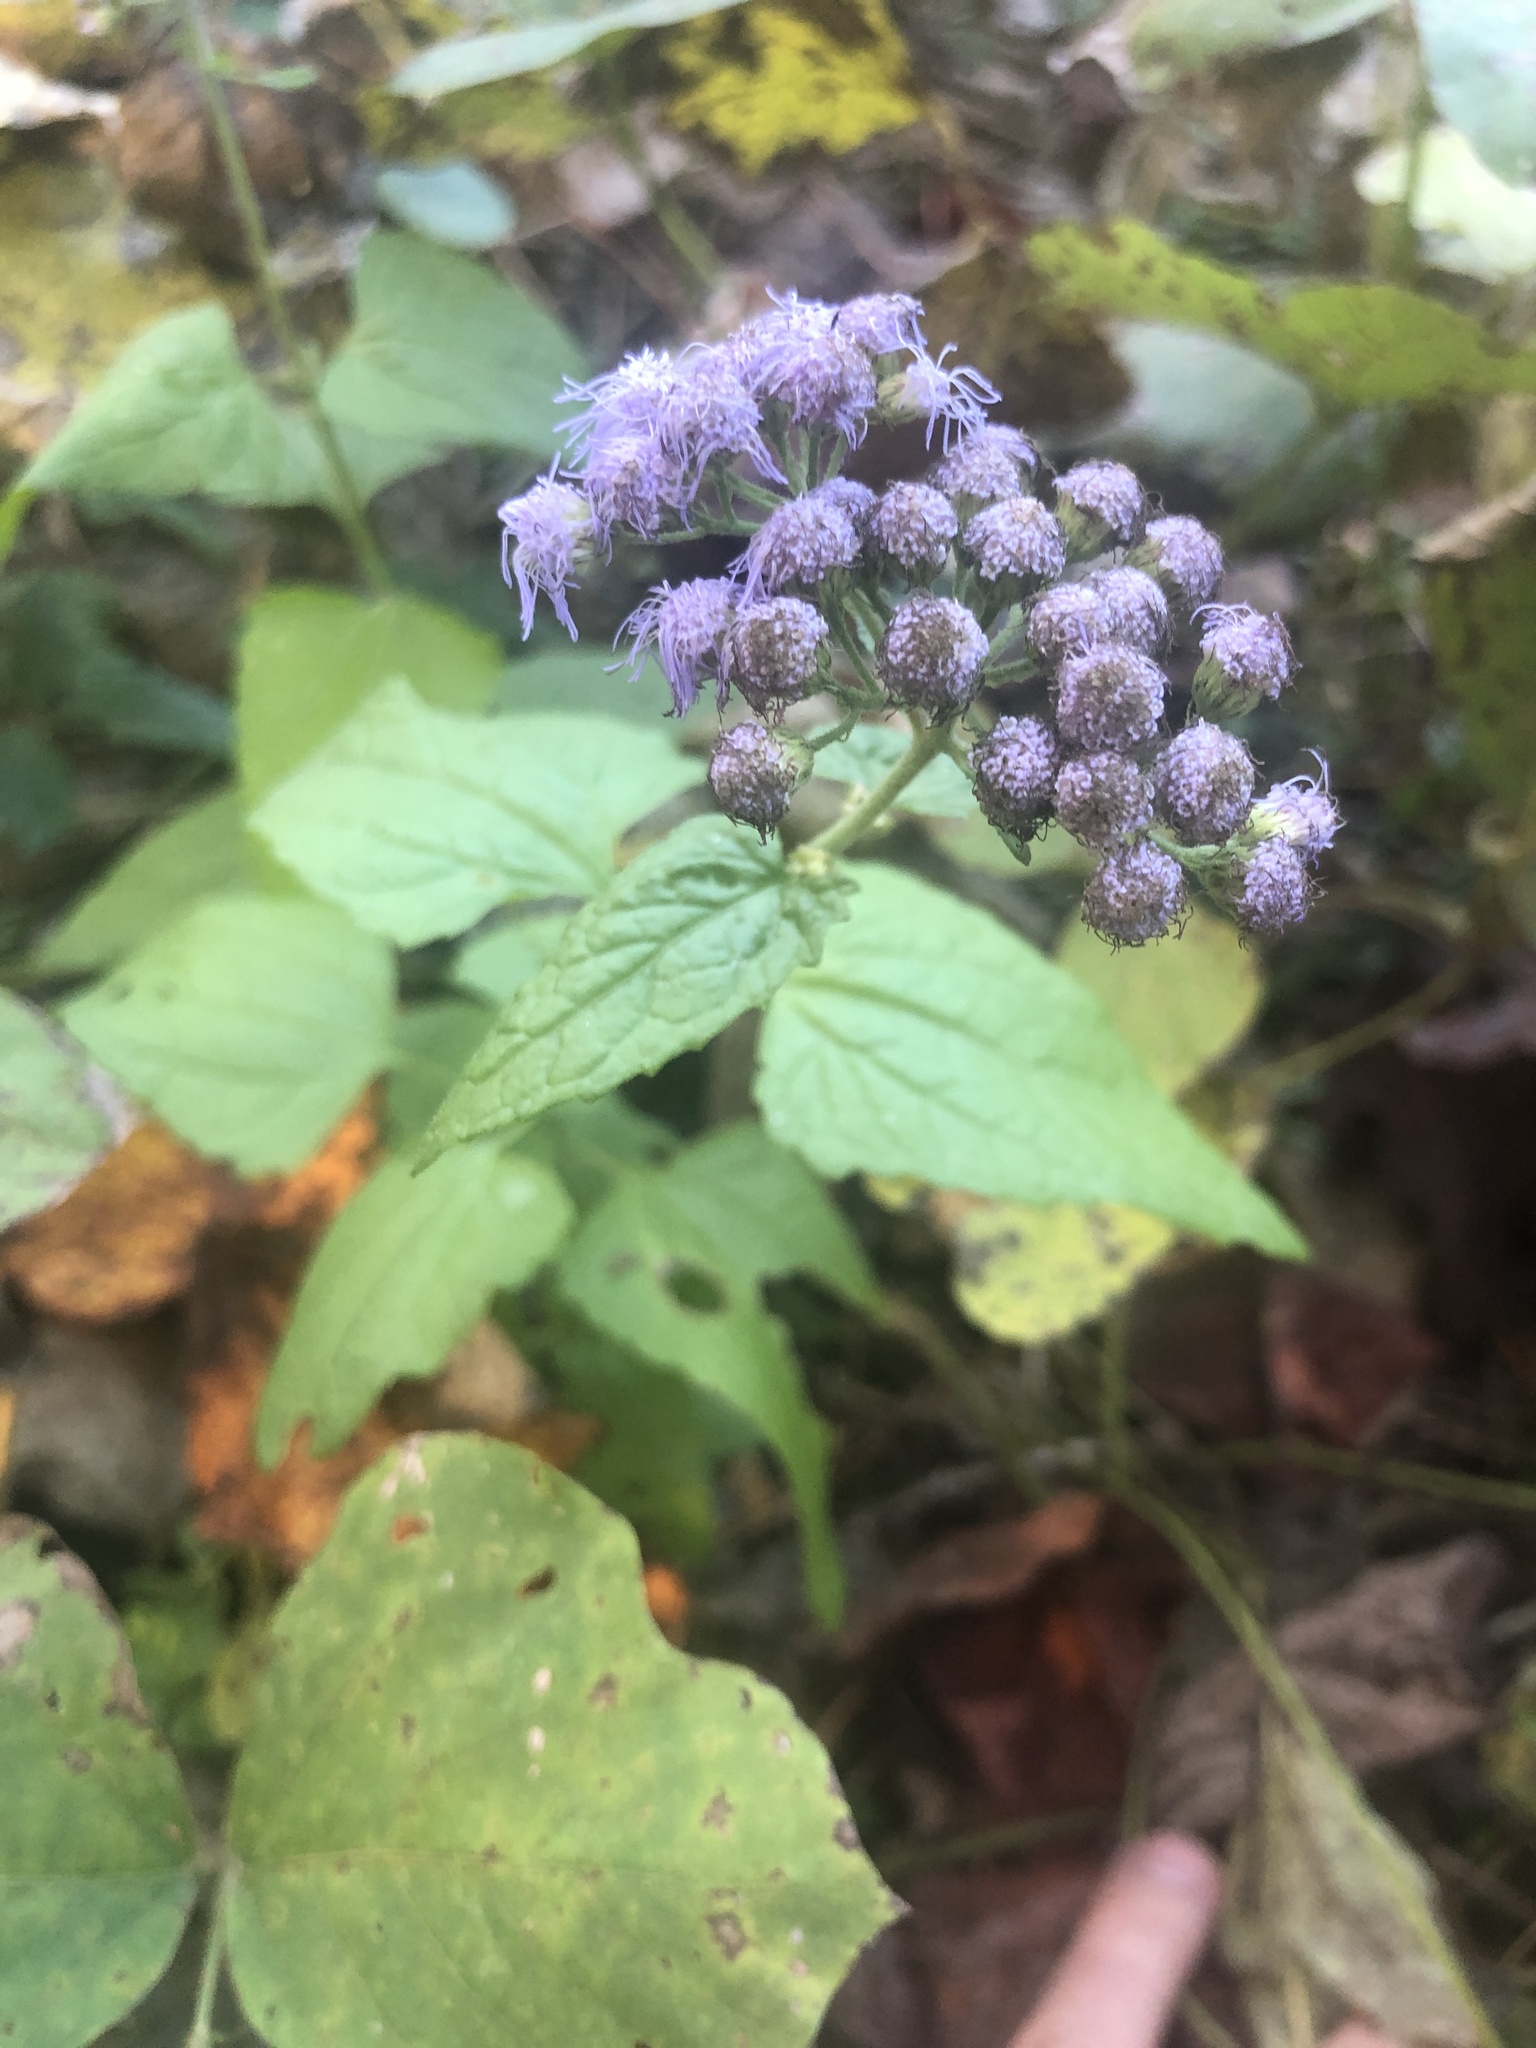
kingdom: Plantae
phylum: Tracheophyta
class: Magnoliopsida
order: Asterales
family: Asteraceae
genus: Conoclinium
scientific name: Conoclinium coelestinum
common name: Blue mistflower
